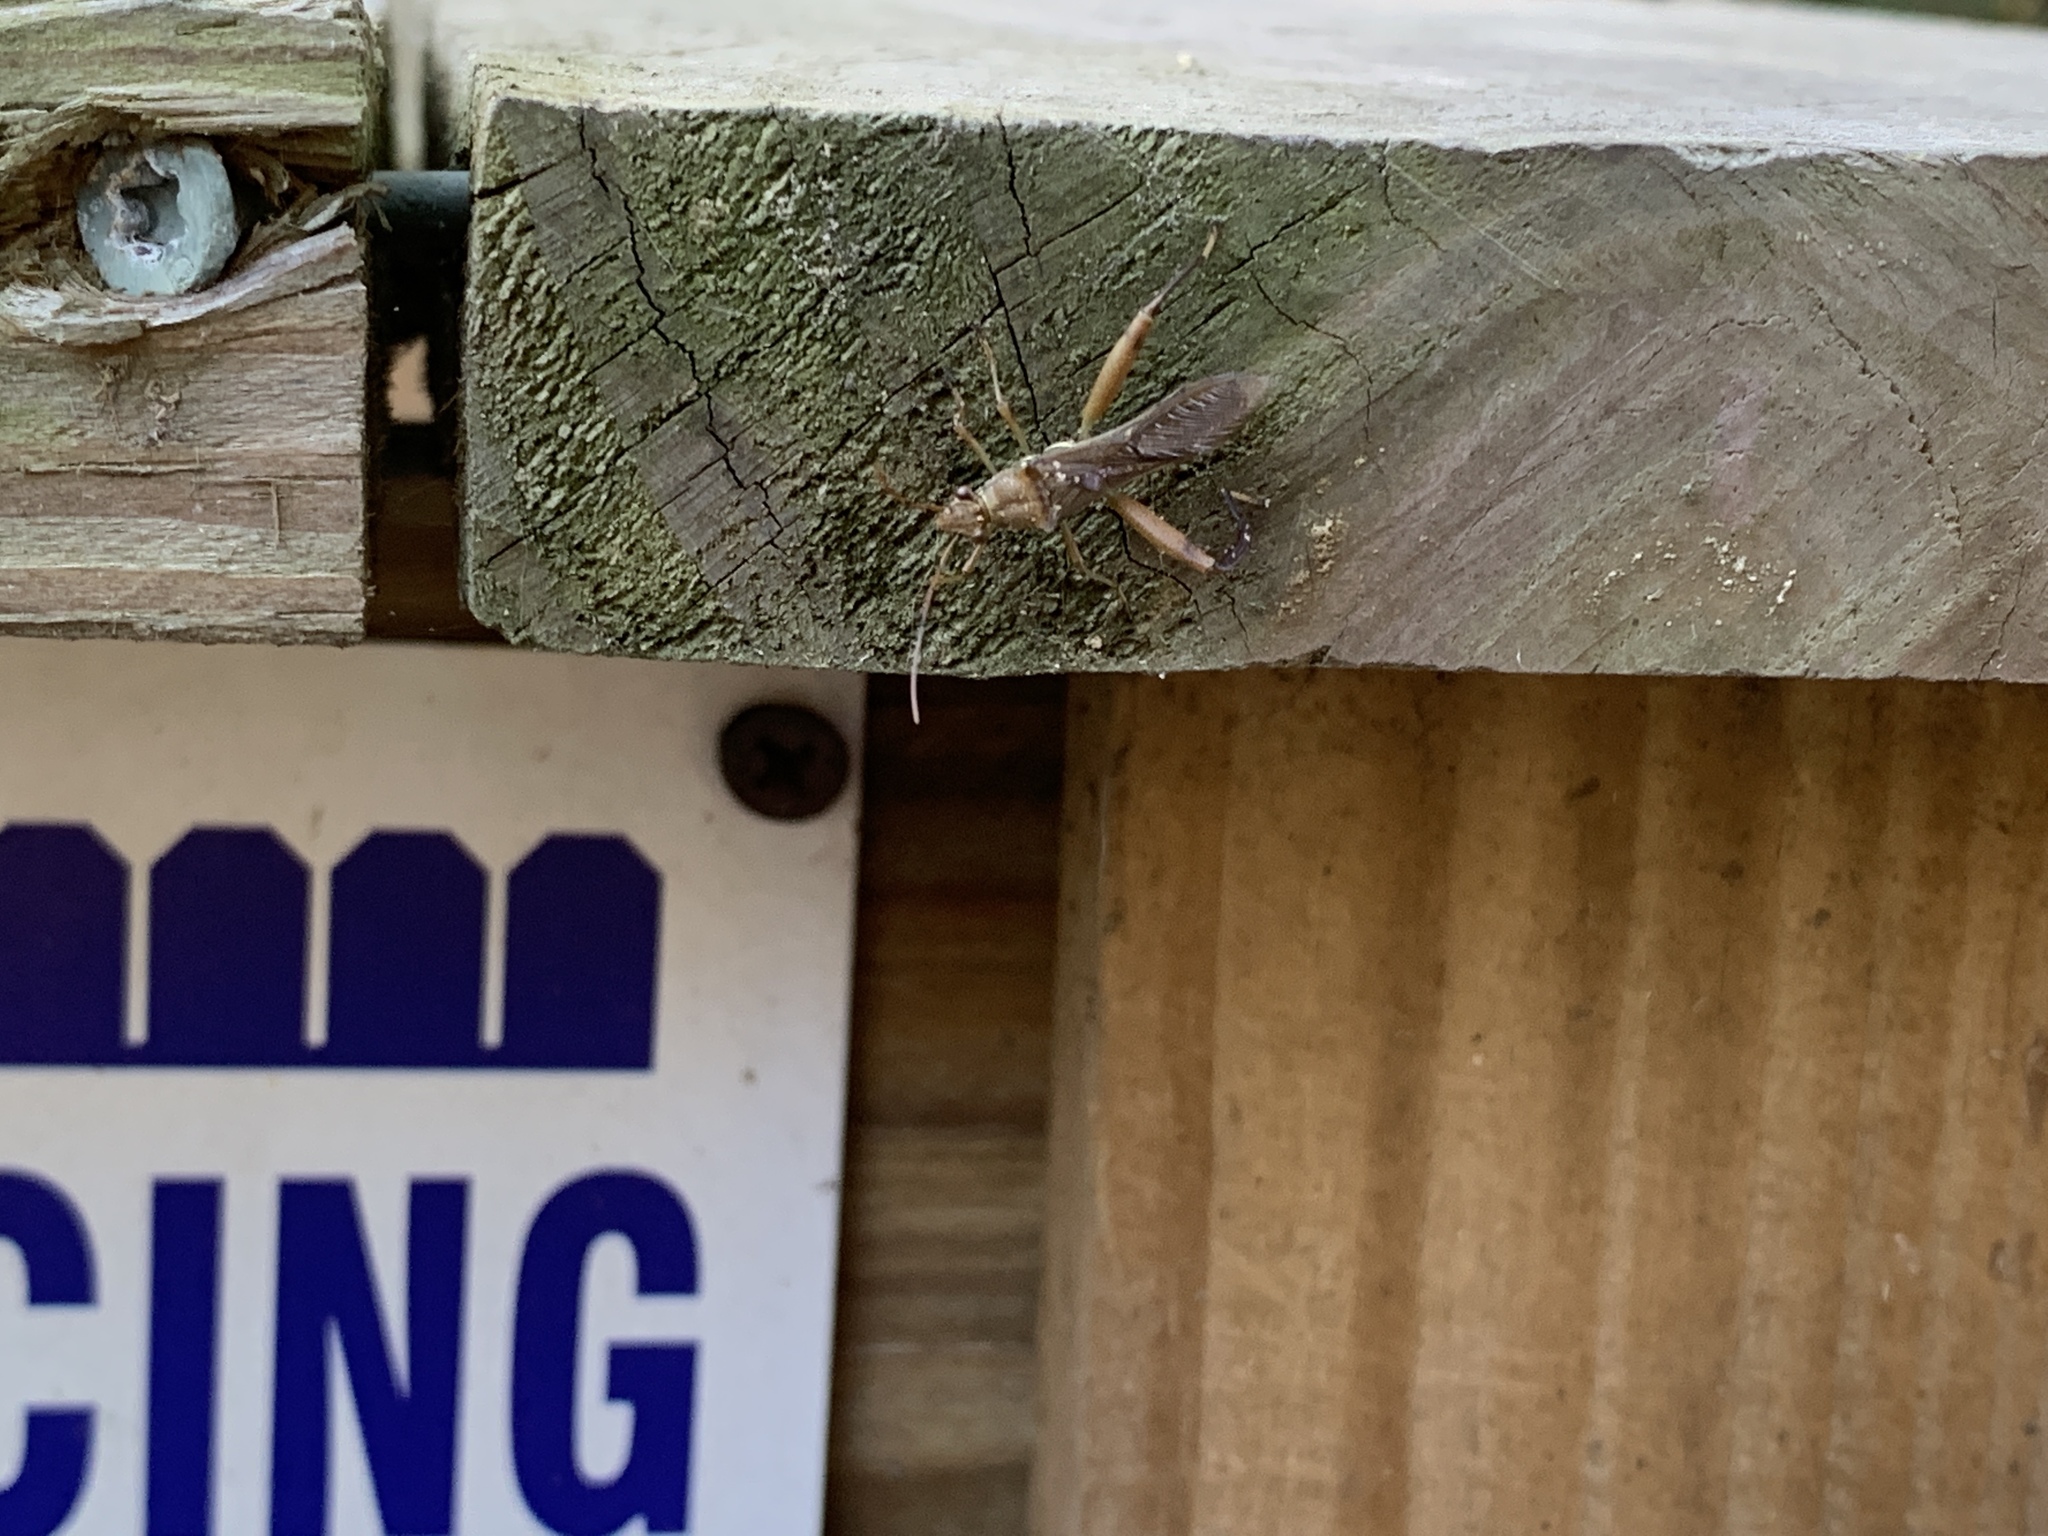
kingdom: Animalia
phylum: Arthropoda
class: Insecta
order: Hemiptera
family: Alydidae
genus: Hyalymenus
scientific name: Hyalymenus tarsatus
